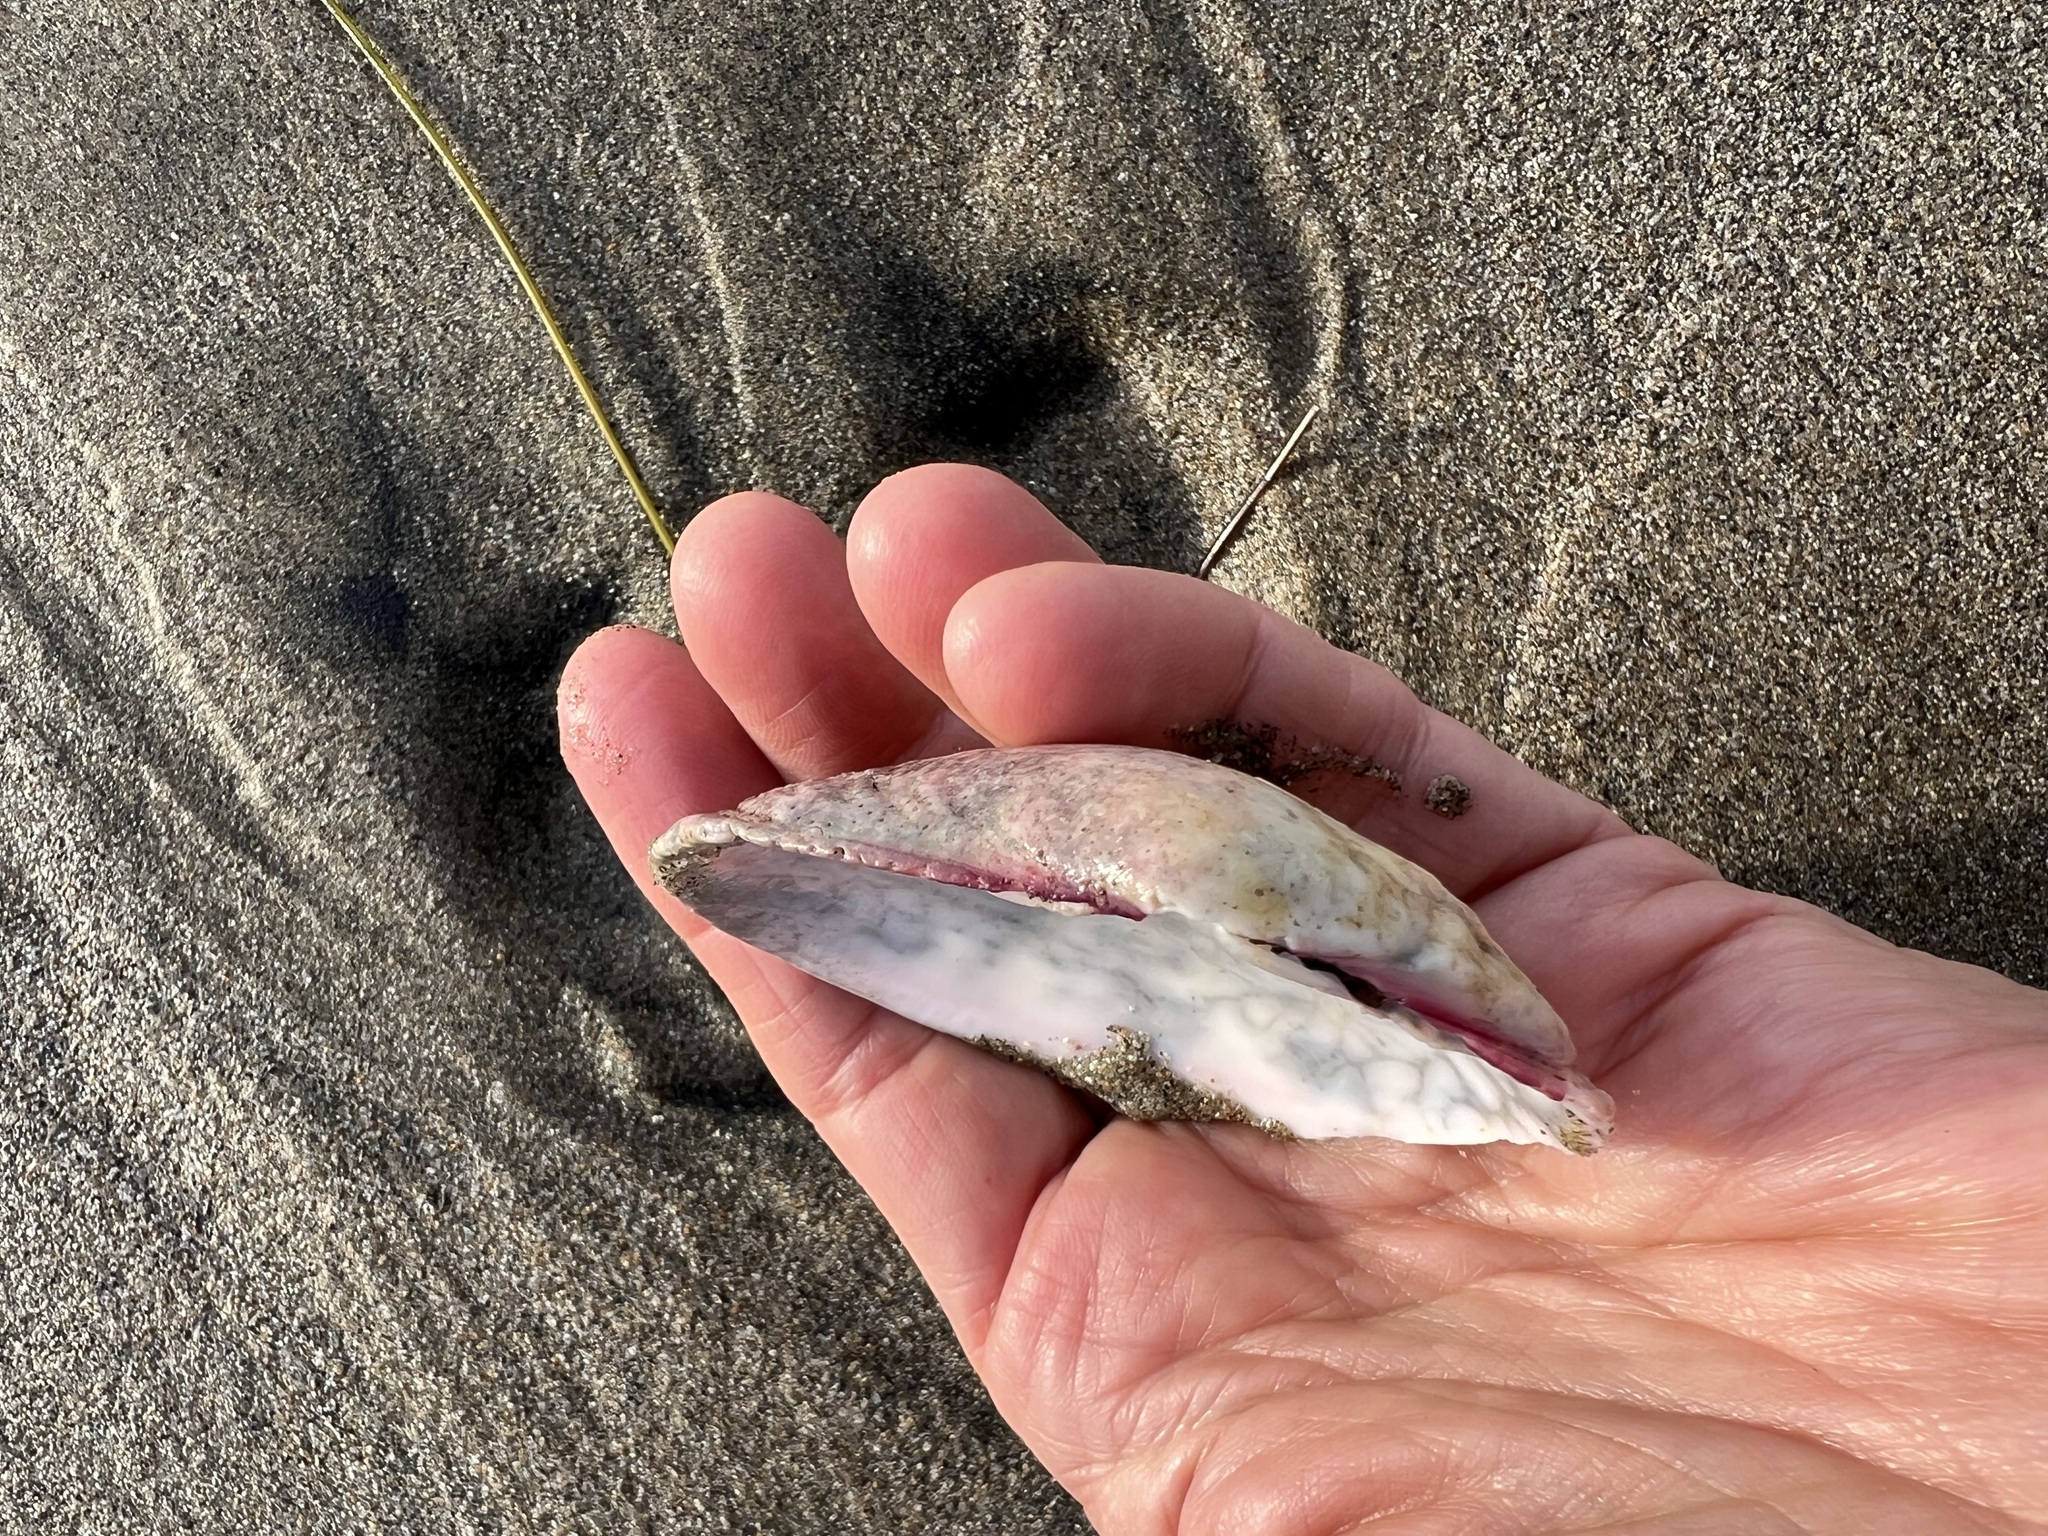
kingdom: Animalia
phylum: Mollusca
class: Bivalvia
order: Cardiida
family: Semelidae
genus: Semele
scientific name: Semele decisa
